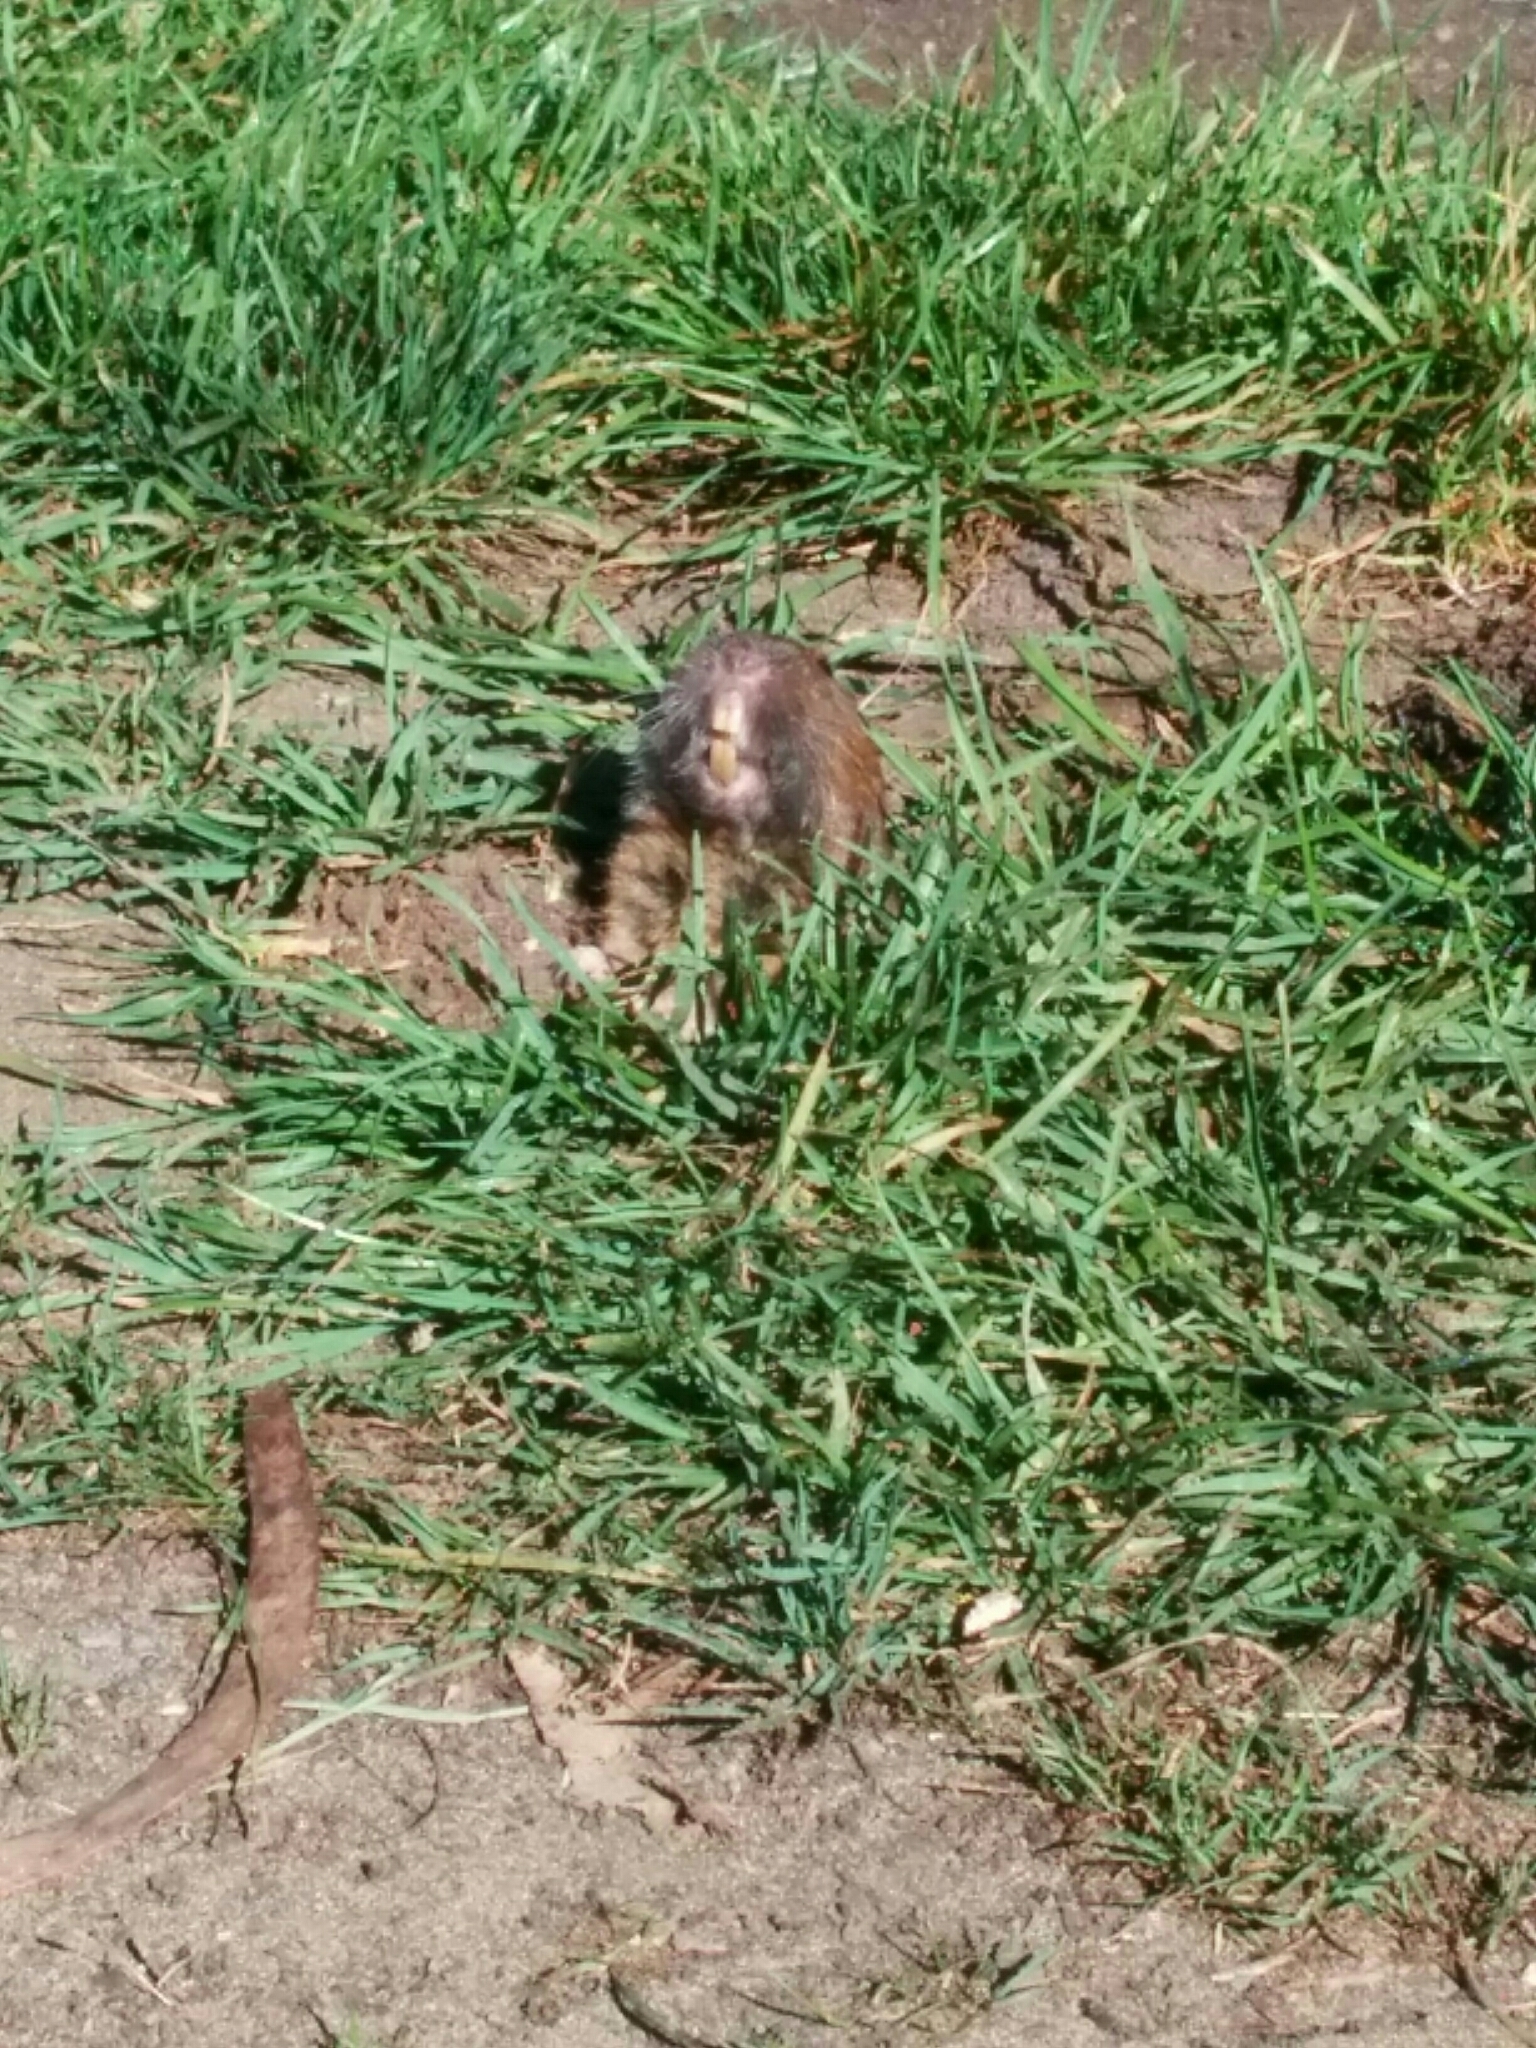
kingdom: Animalia
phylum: Chordata
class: Mammalia
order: Rodentia
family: Geomyidae
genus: Thomomys
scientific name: Thomomys bottae
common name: Botta's pocket gopher
